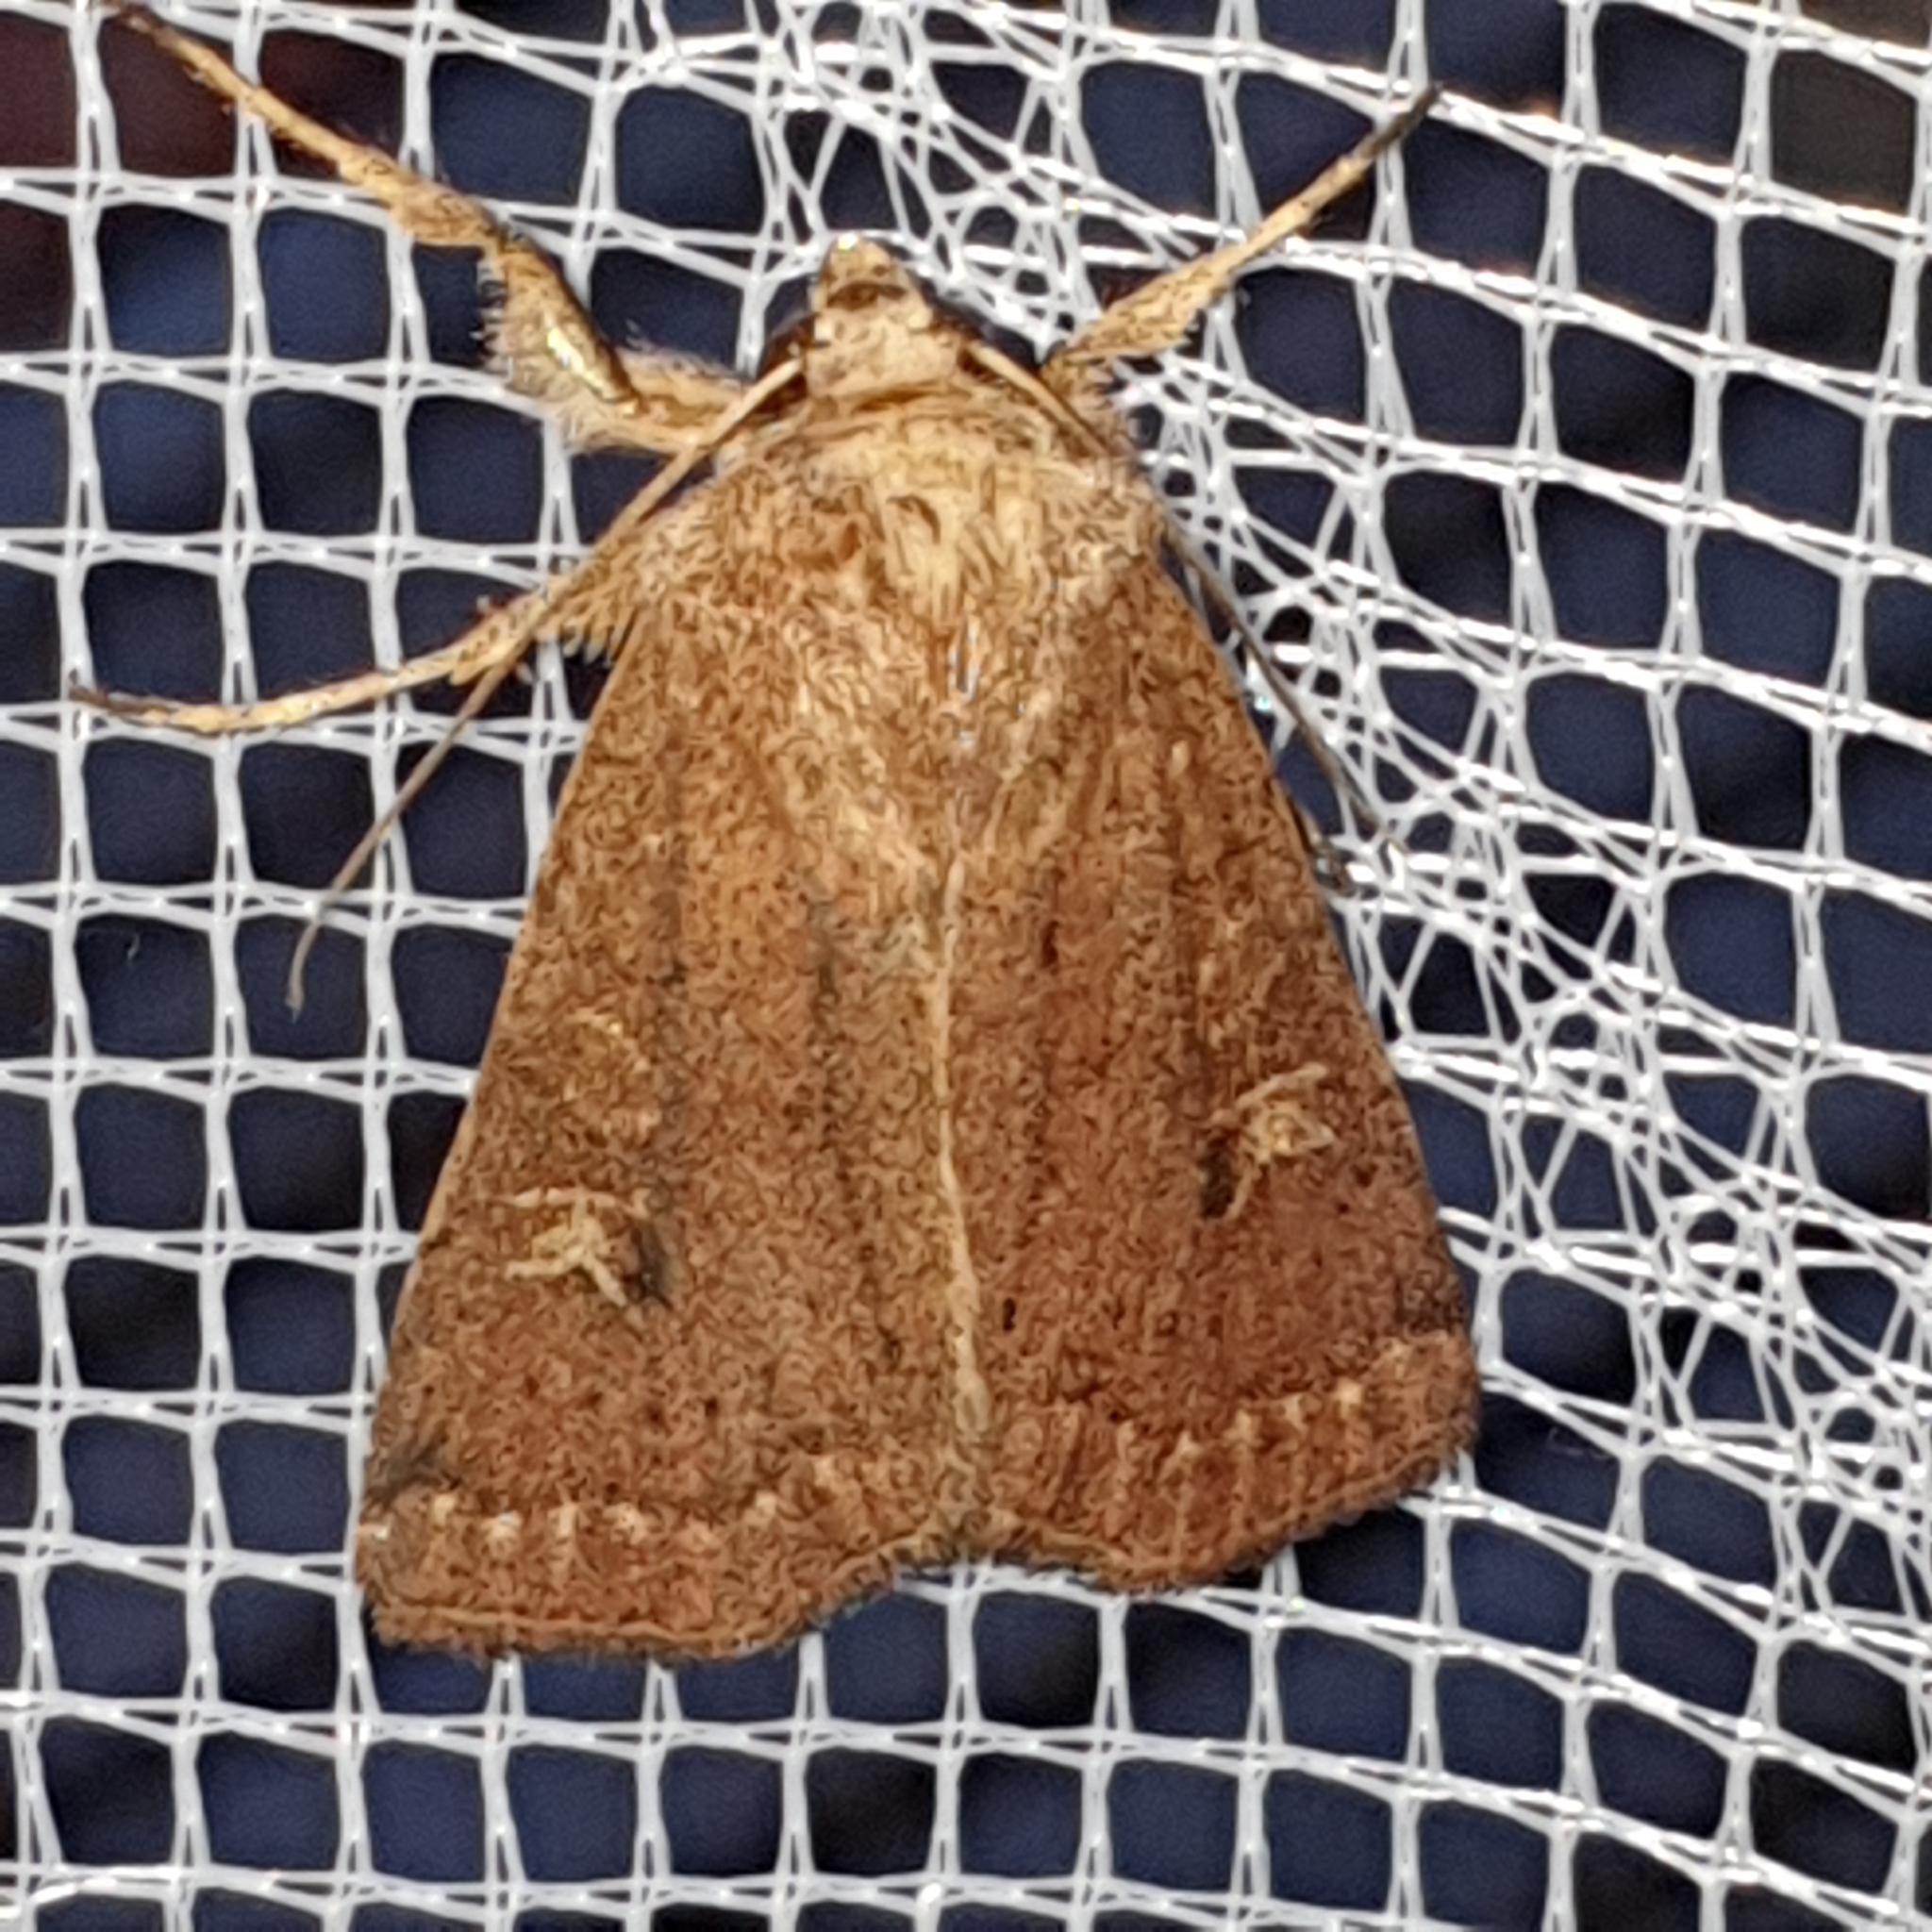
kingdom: Animalia
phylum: Arthropoda
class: Insecta
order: Lepidoptera
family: Noctuidae
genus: Xestia
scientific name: Xestia xanthographa
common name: Square-spot rustic
